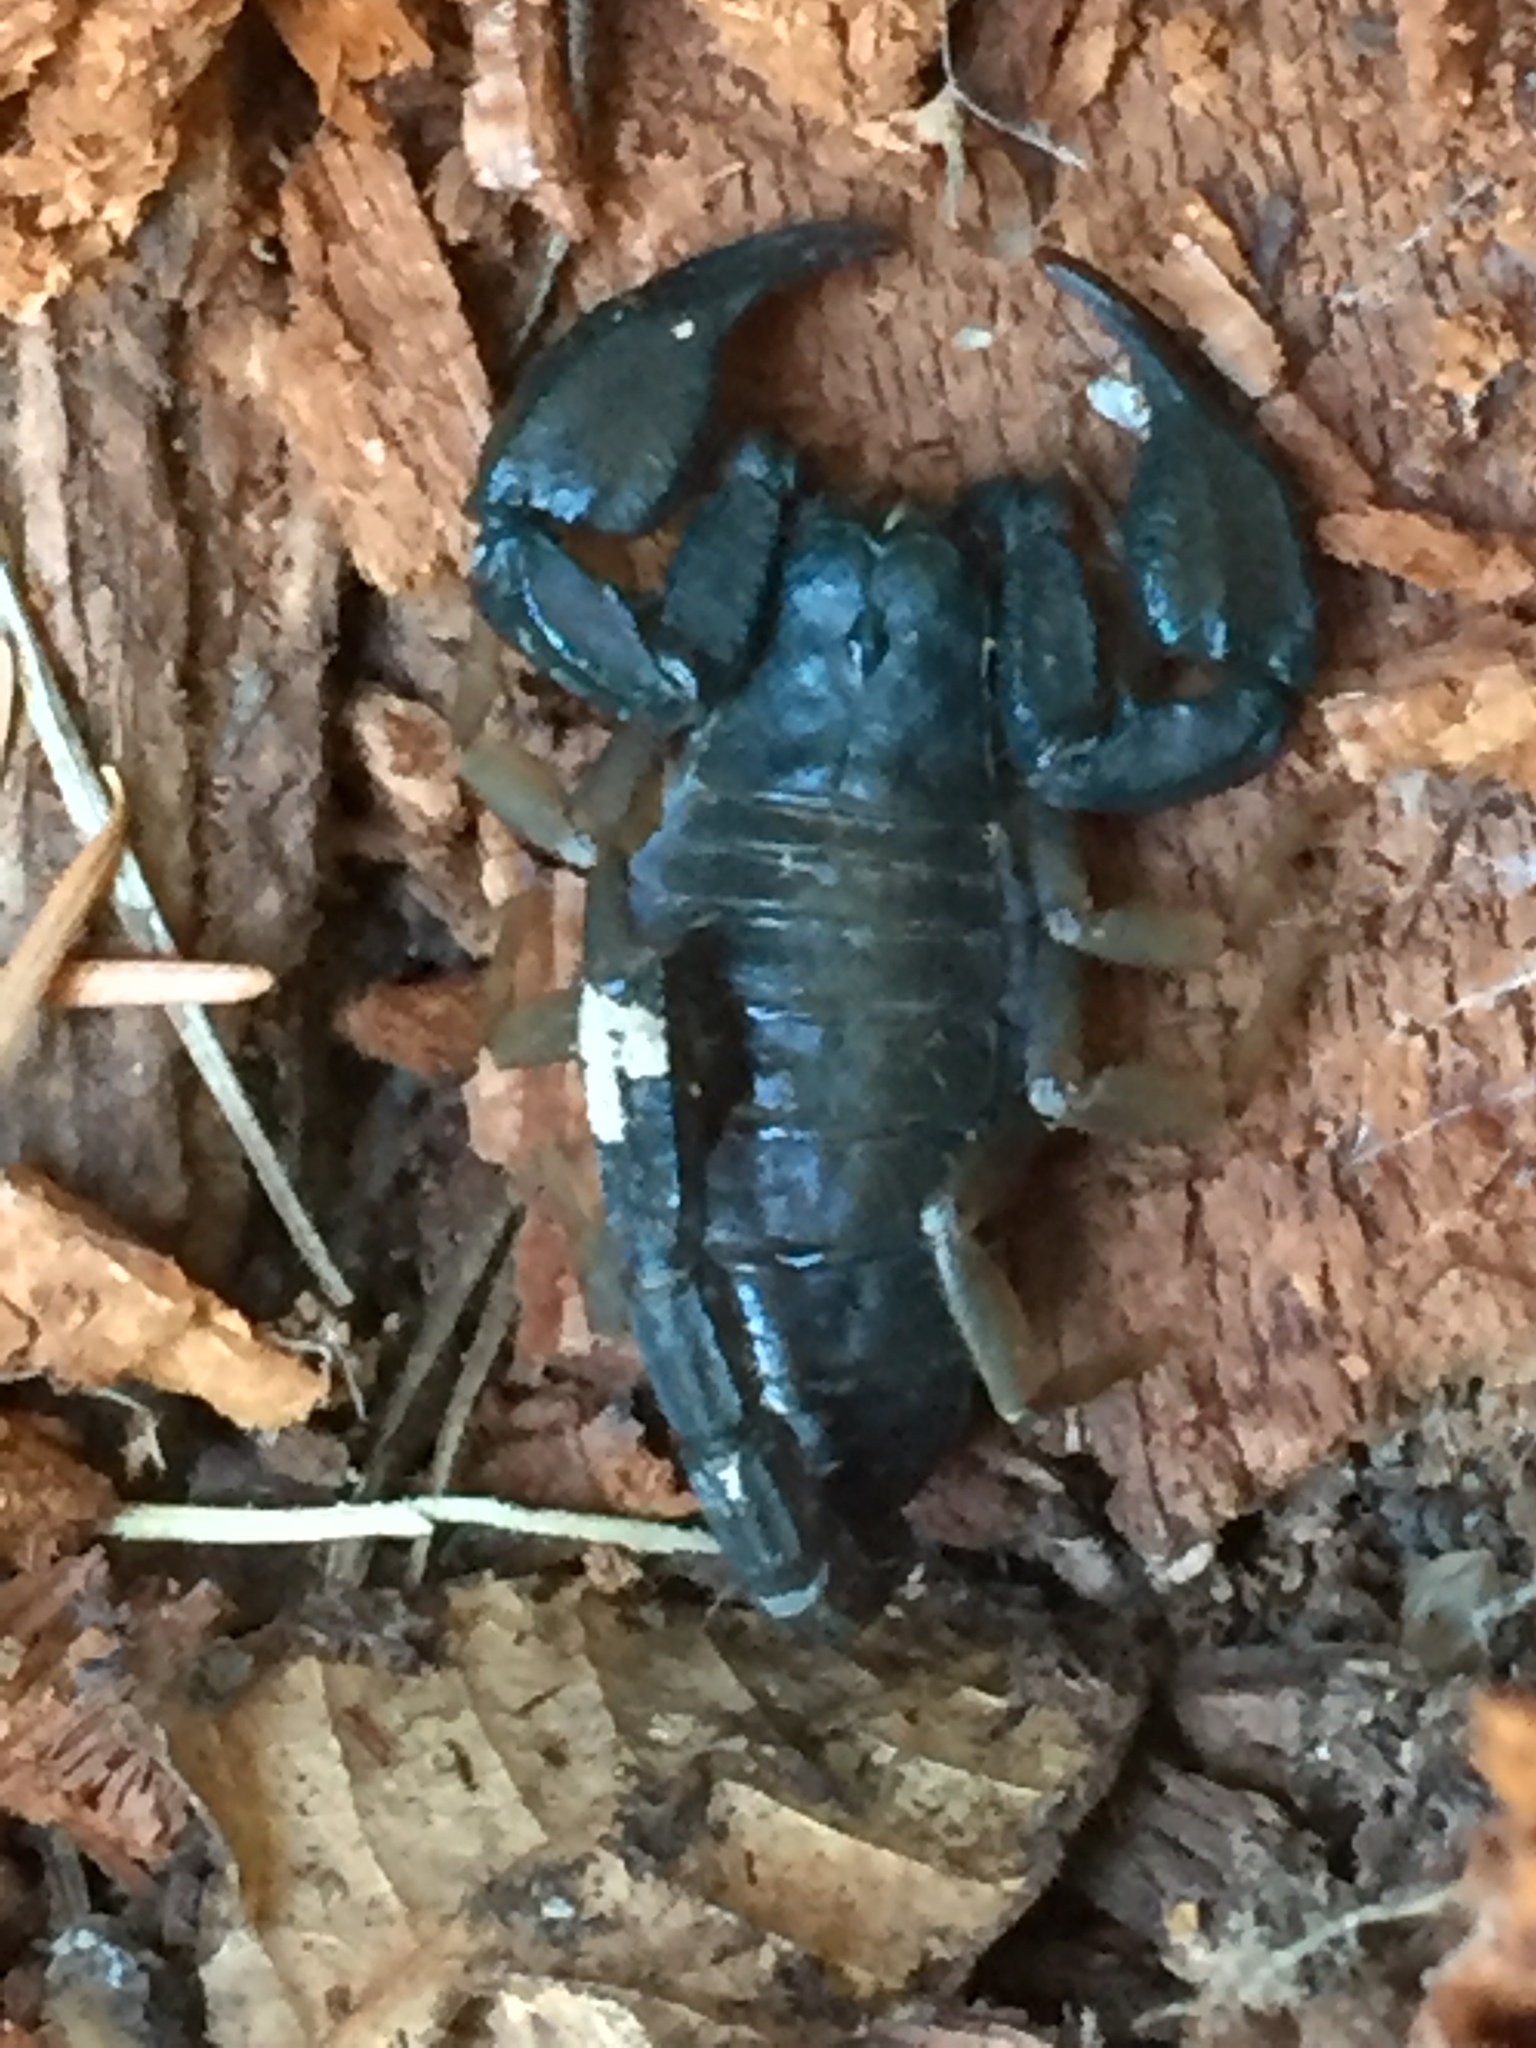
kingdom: Animalia
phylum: Arthropoda
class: Arachnida
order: Scorpiones
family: Chactidae
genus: Uroctonus
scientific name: Uroctonus mordax
